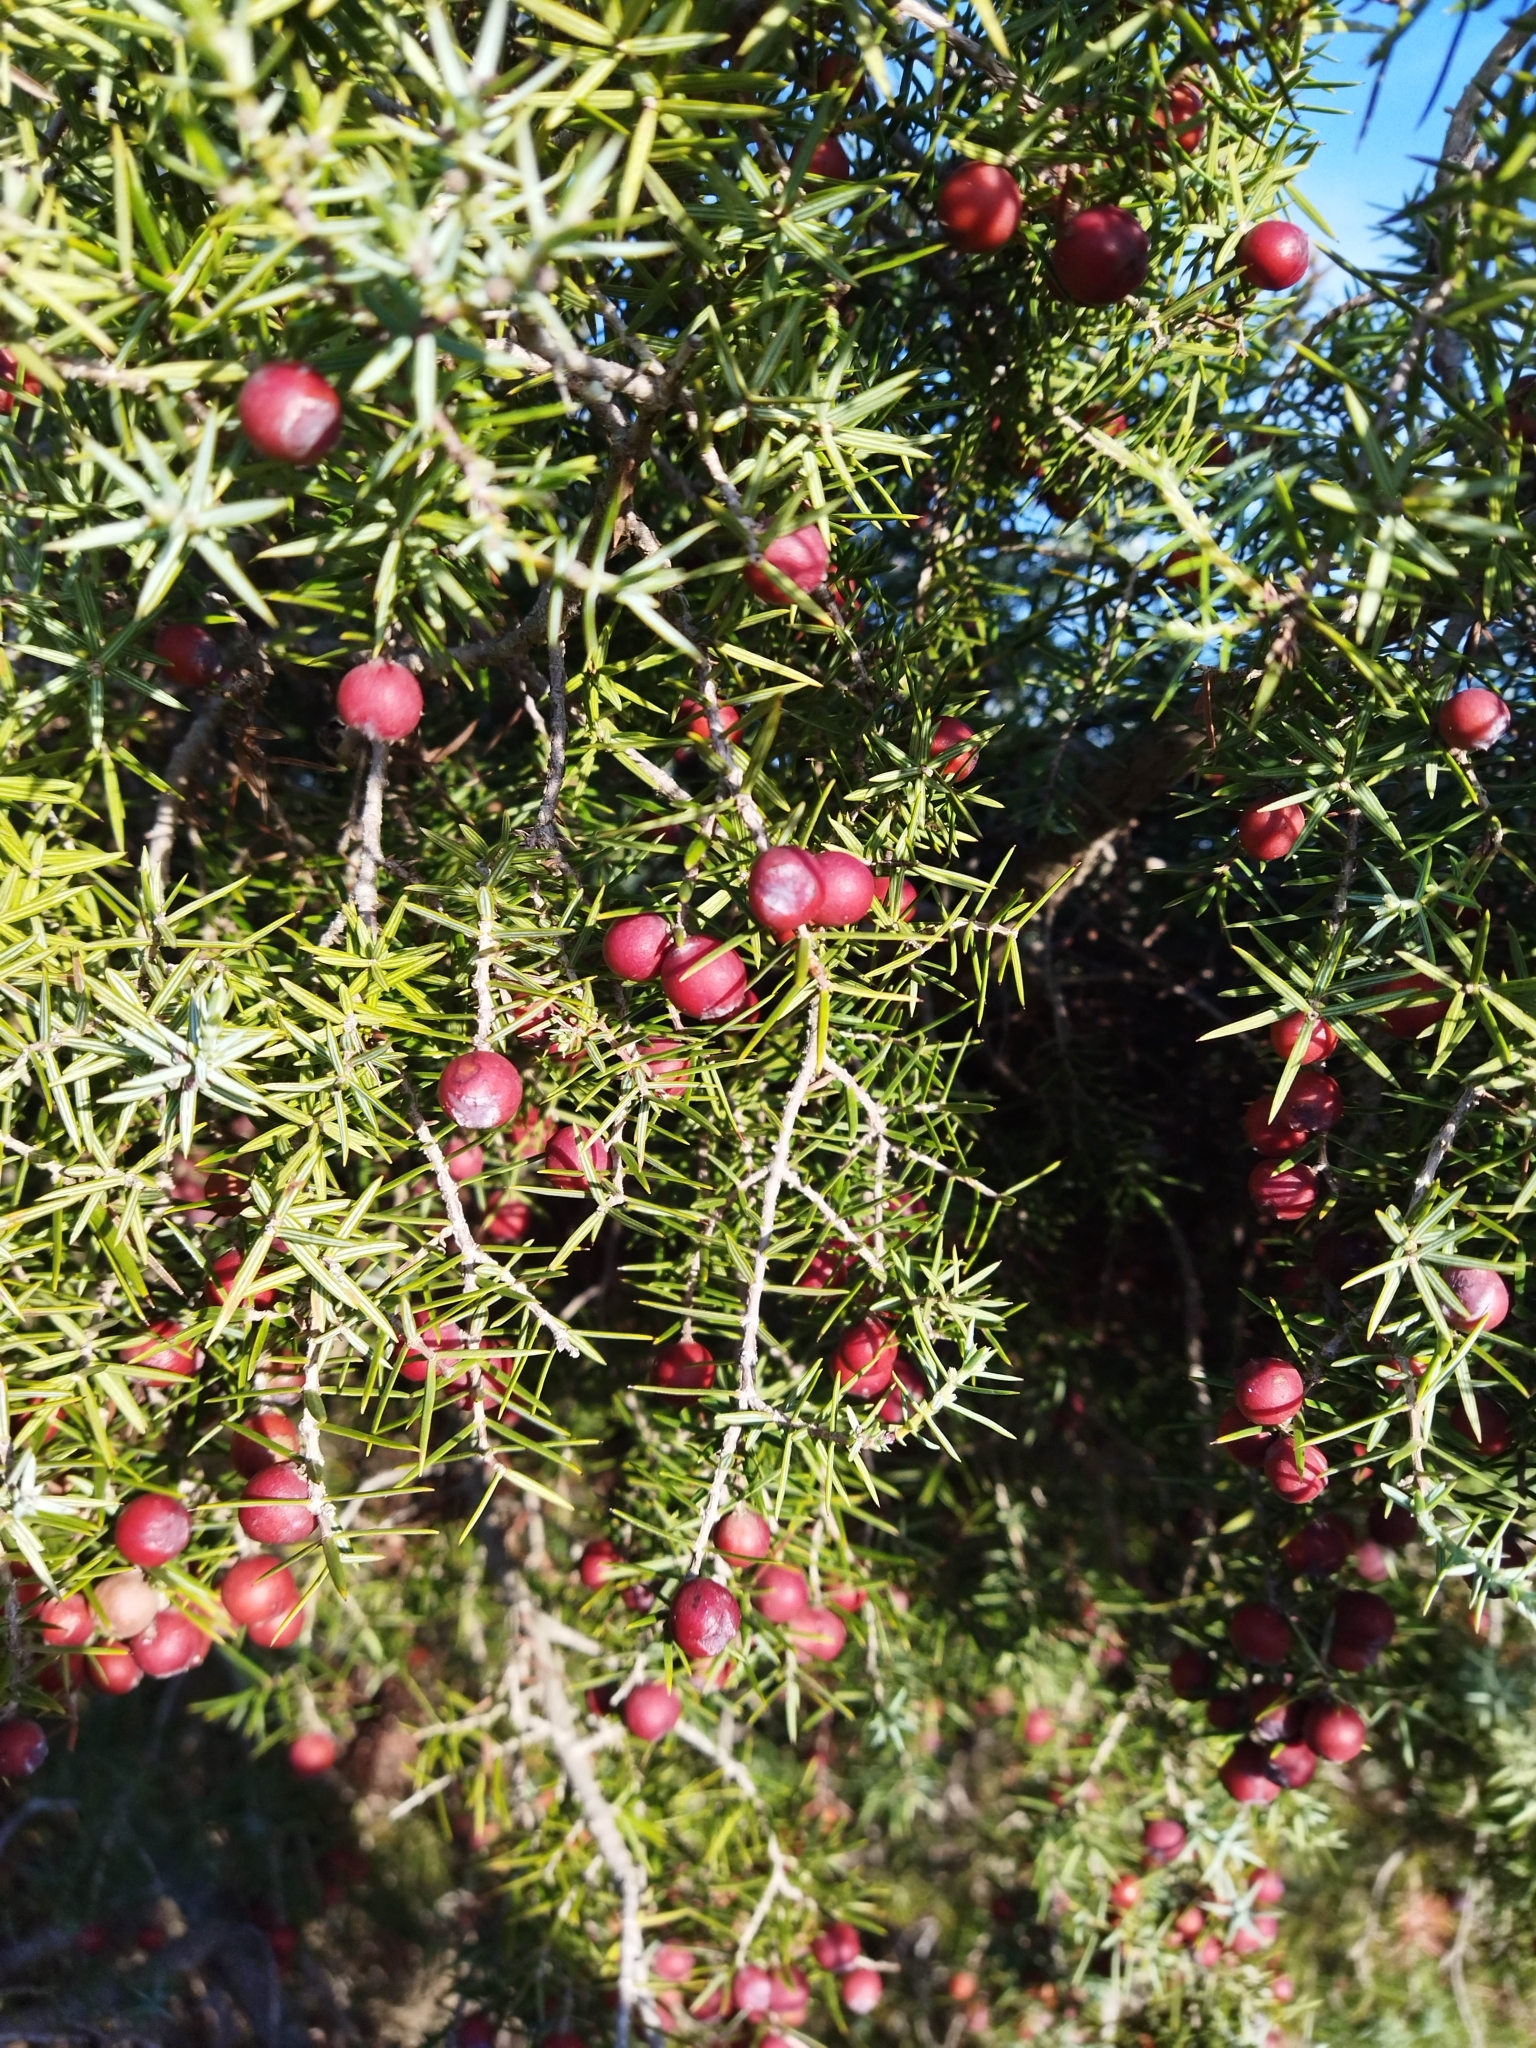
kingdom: Plantae
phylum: Tracheophyta
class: Pinopsida
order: Pinales
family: Cupressaceae
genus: Juniperus
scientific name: Juniperus oxycedrus
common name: Prickly juniper
